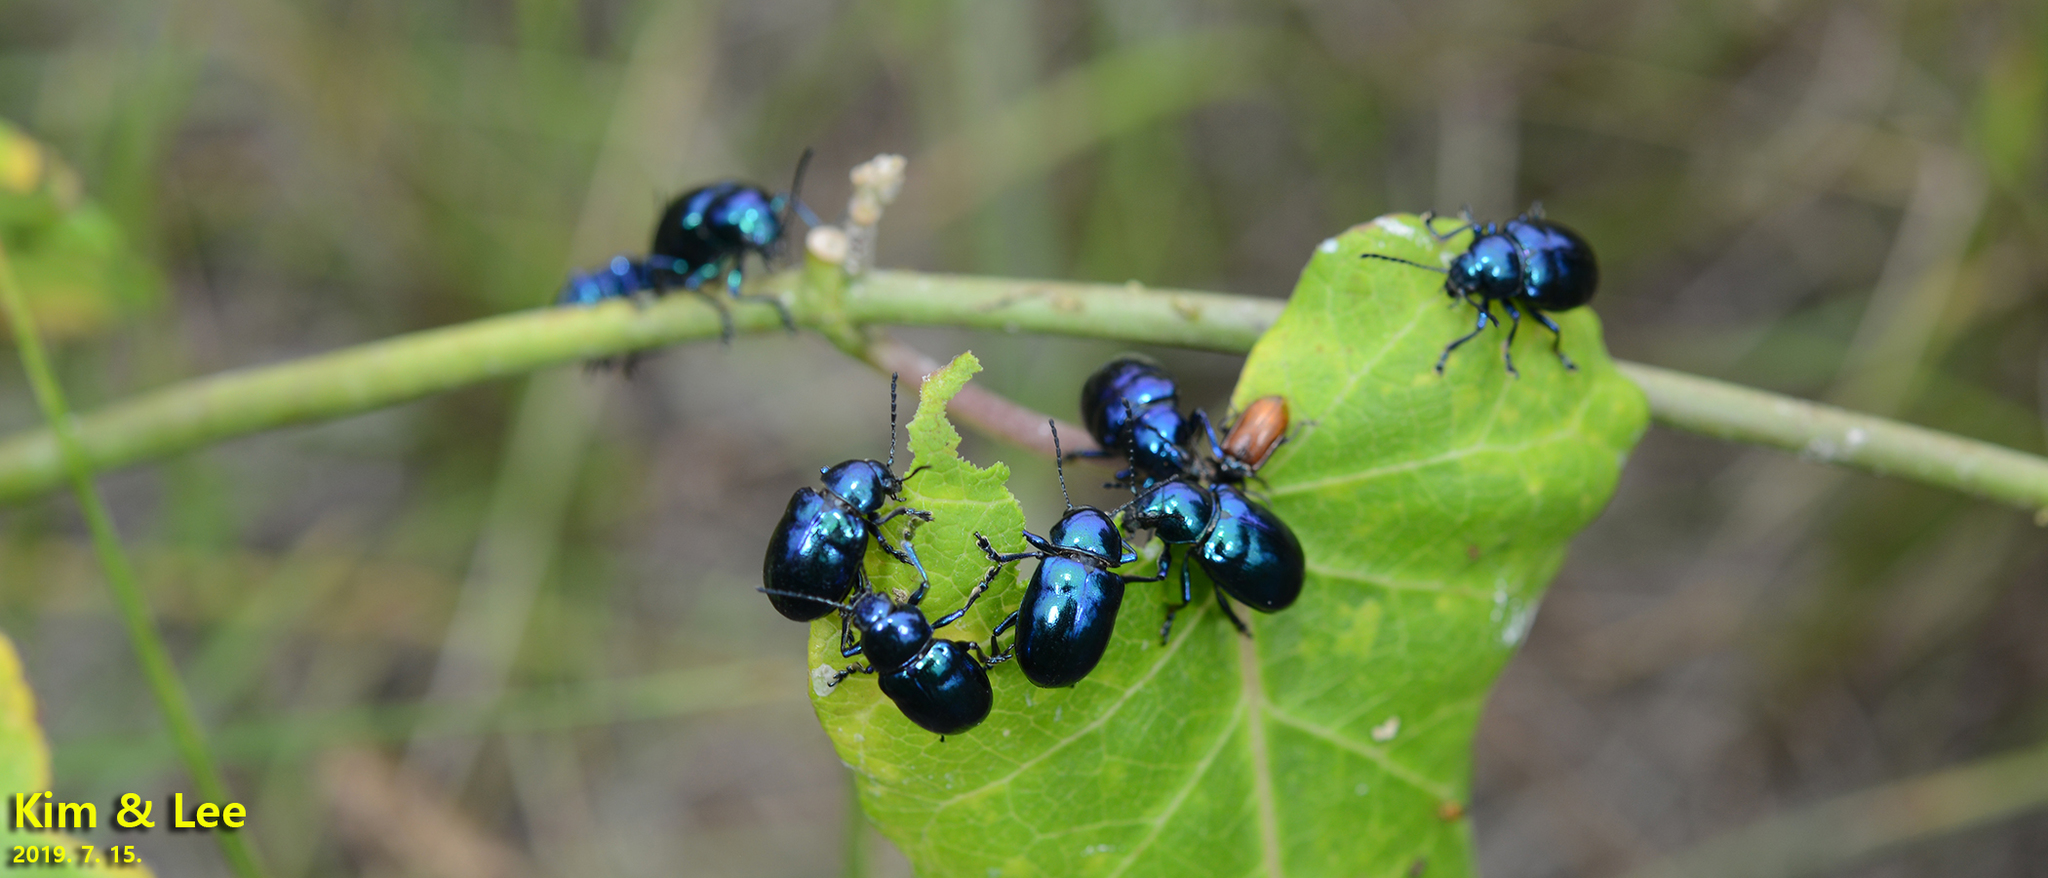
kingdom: Animalia
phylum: Arthropoda
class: Insecta
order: Coleoptera
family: Chrysomelidae
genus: Chrysochus
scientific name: Chrysochus chinensis
